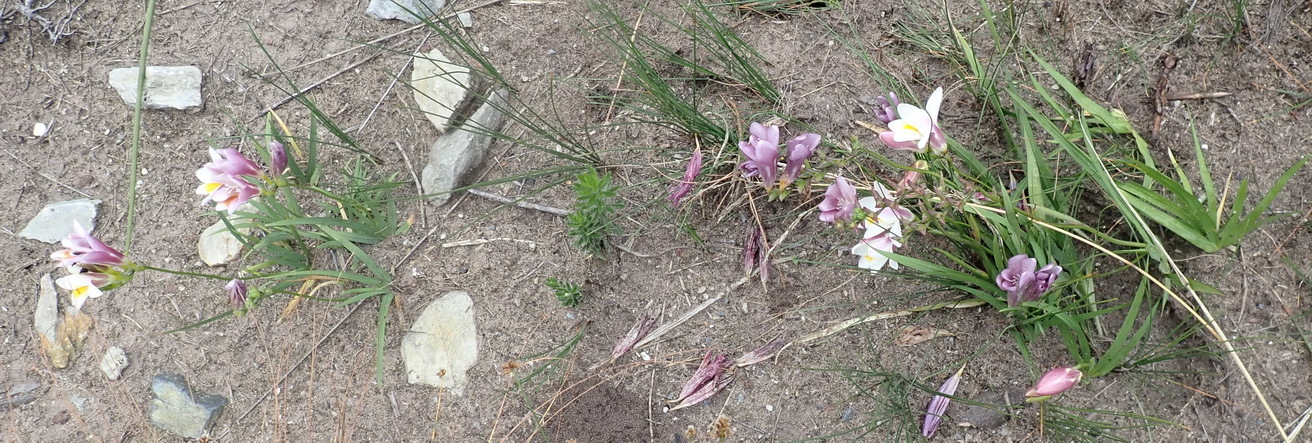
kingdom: Plantae
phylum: Tracheophyta
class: Liliopsida
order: Asparagales
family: Iridaceae
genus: Freesia
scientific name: Freesia leichtlinii
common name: Freesia
